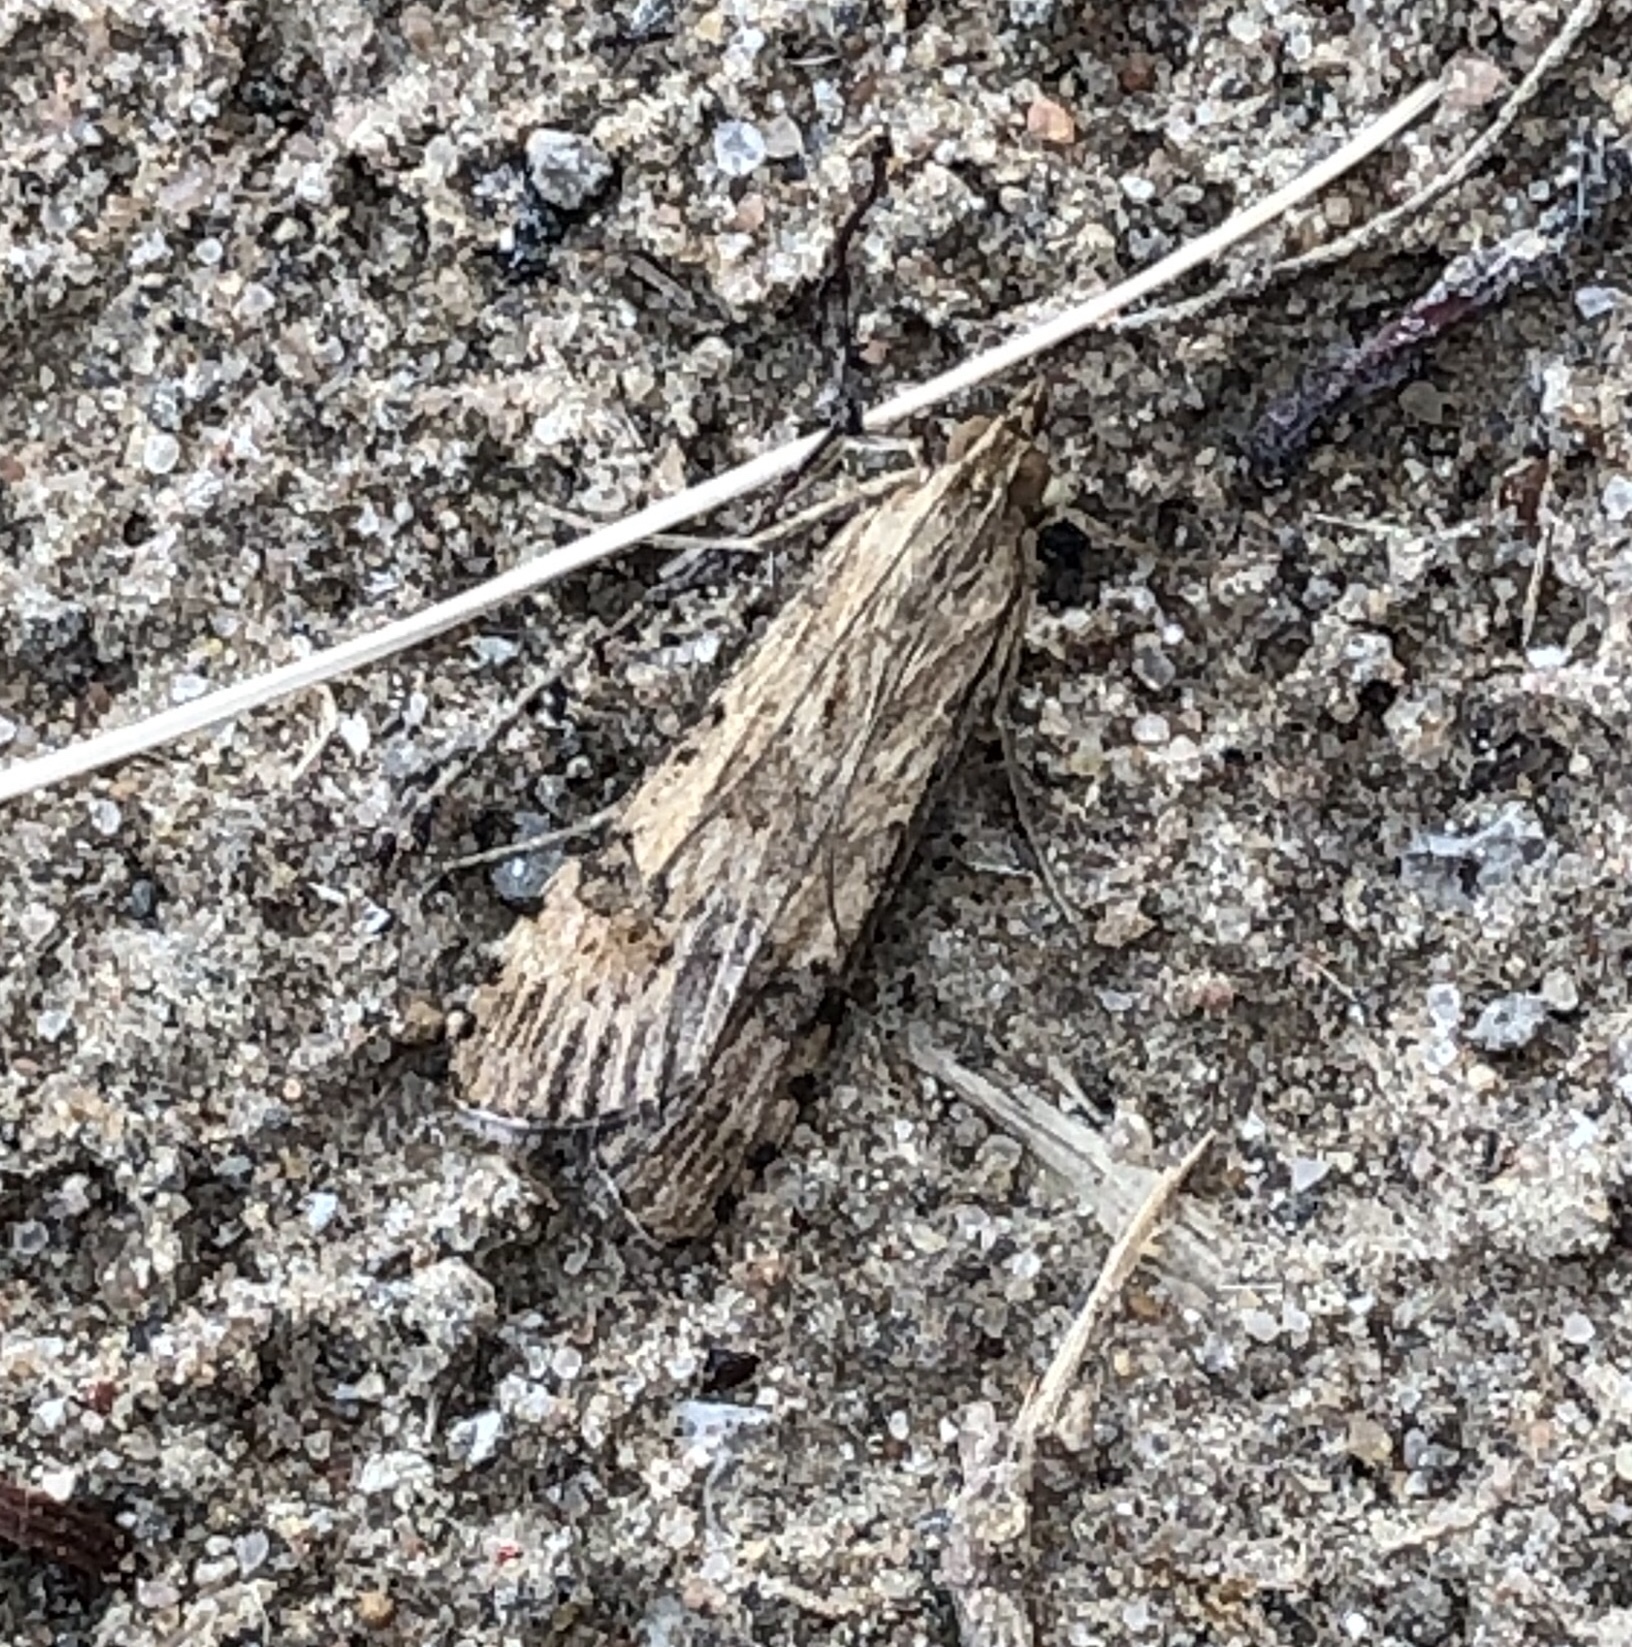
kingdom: Animalia
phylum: Arthropoda
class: Insecta
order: Lepidoptera
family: Crambidae
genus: Nomophila
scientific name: Nomophila nearctica
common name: American rush veneer
